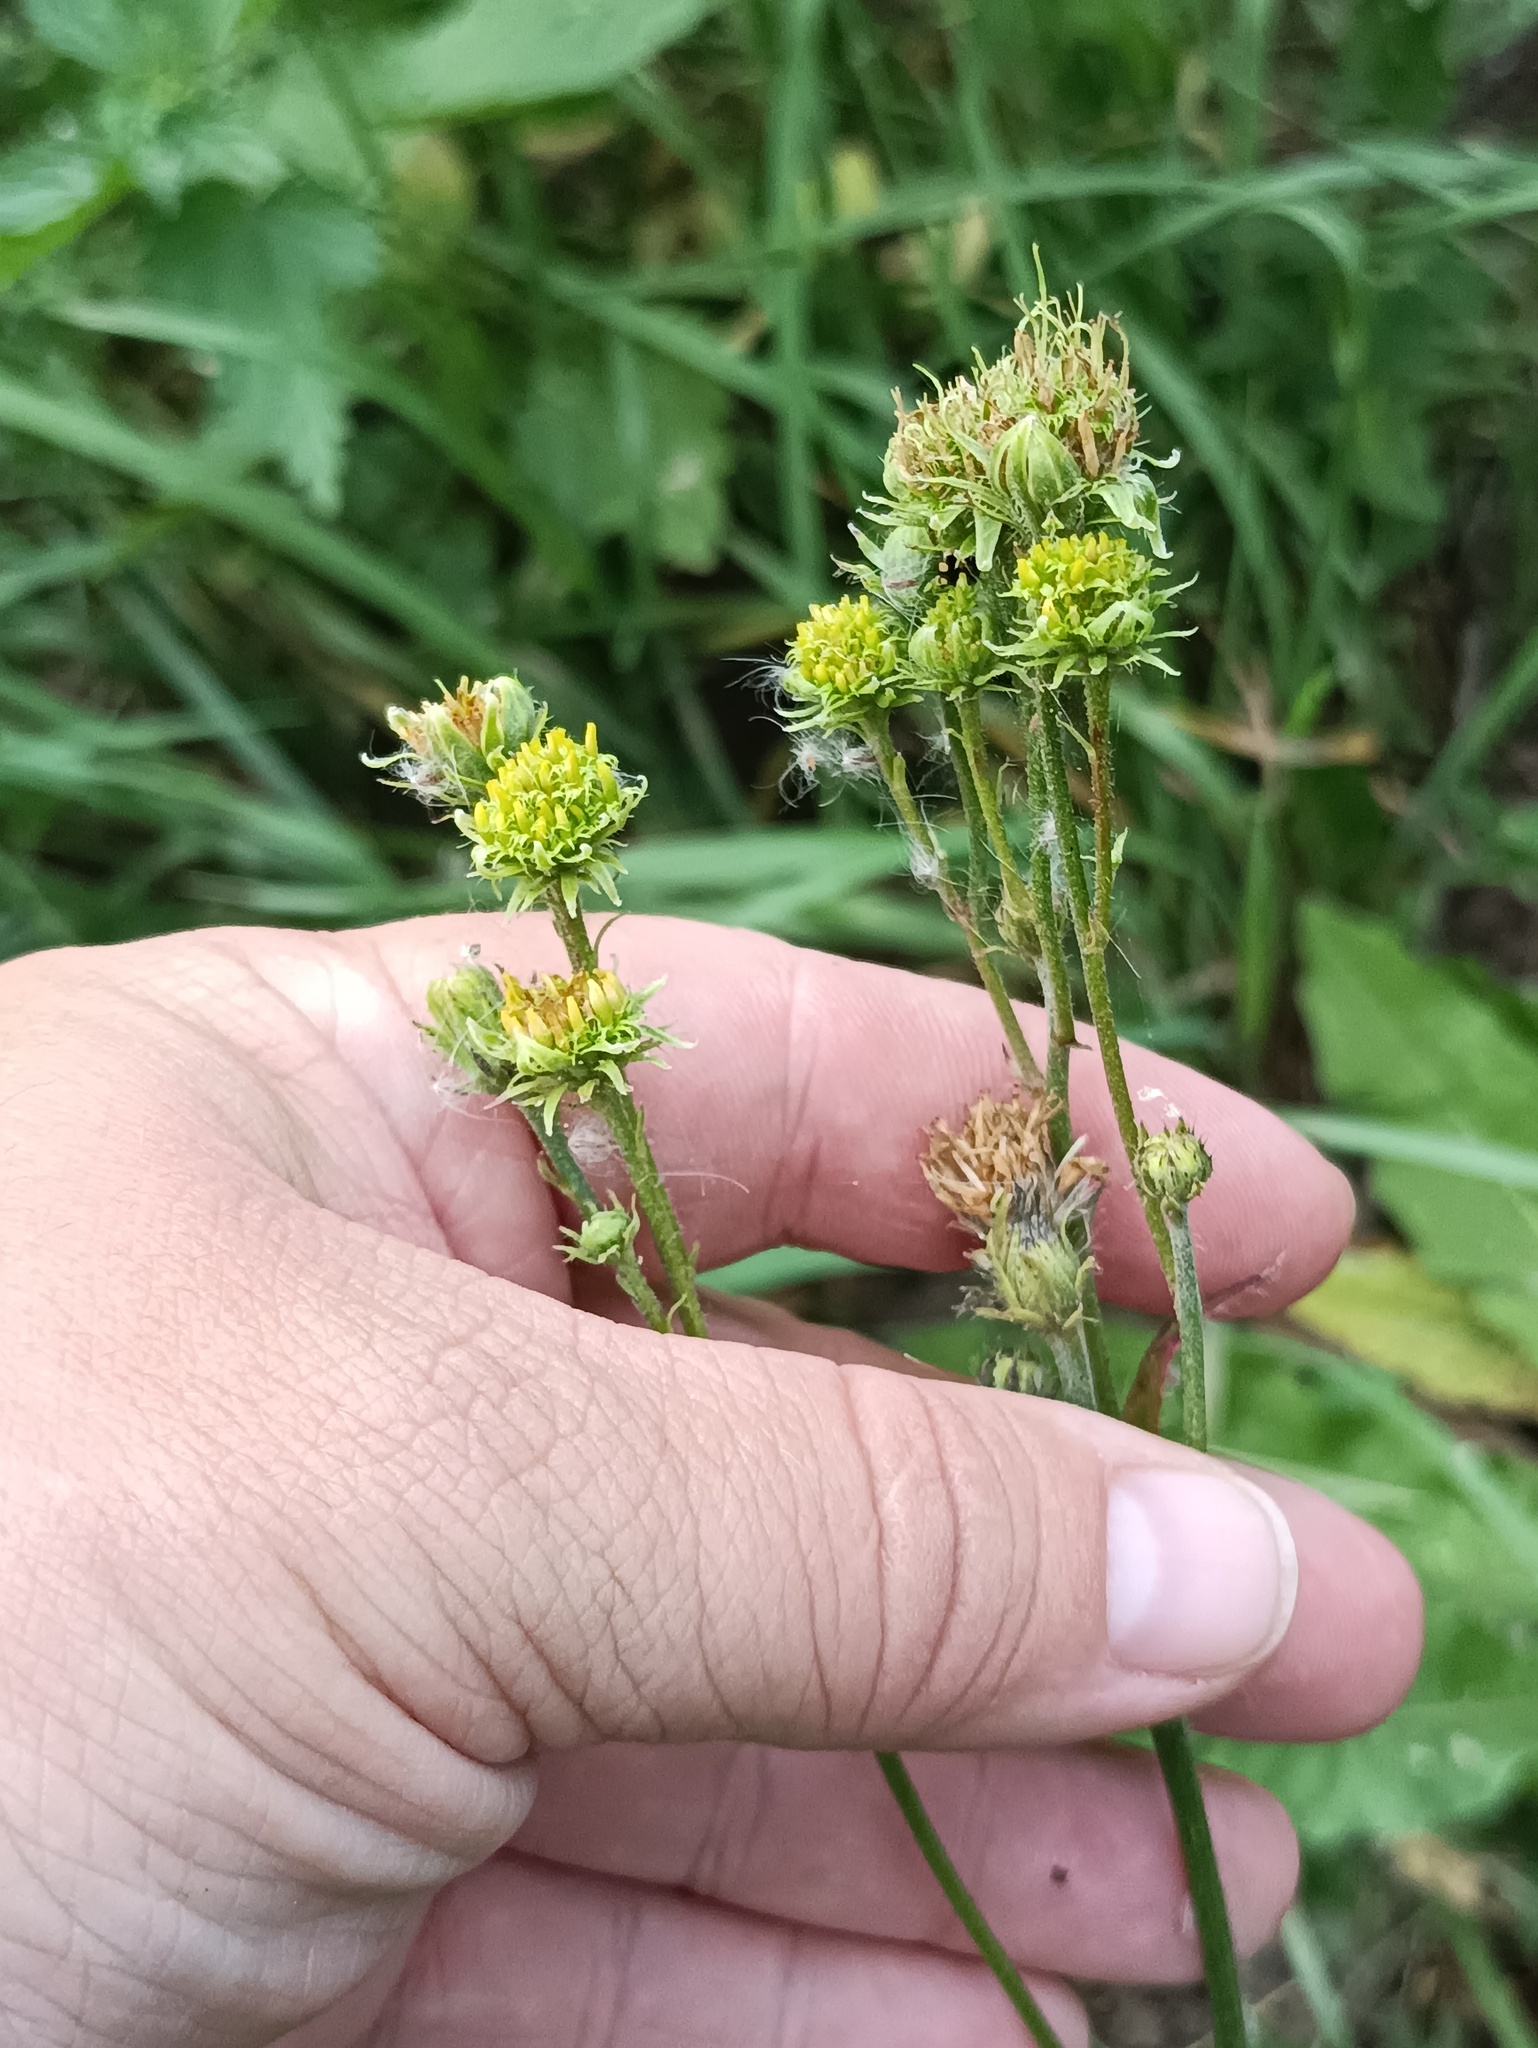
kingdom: Plantae
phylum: Tracheophyta
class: Magnoliopsida
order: Asterales
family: Asteraceae
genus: Picris
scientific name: Picris hieracioides
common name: Hawkweed oxtongue
